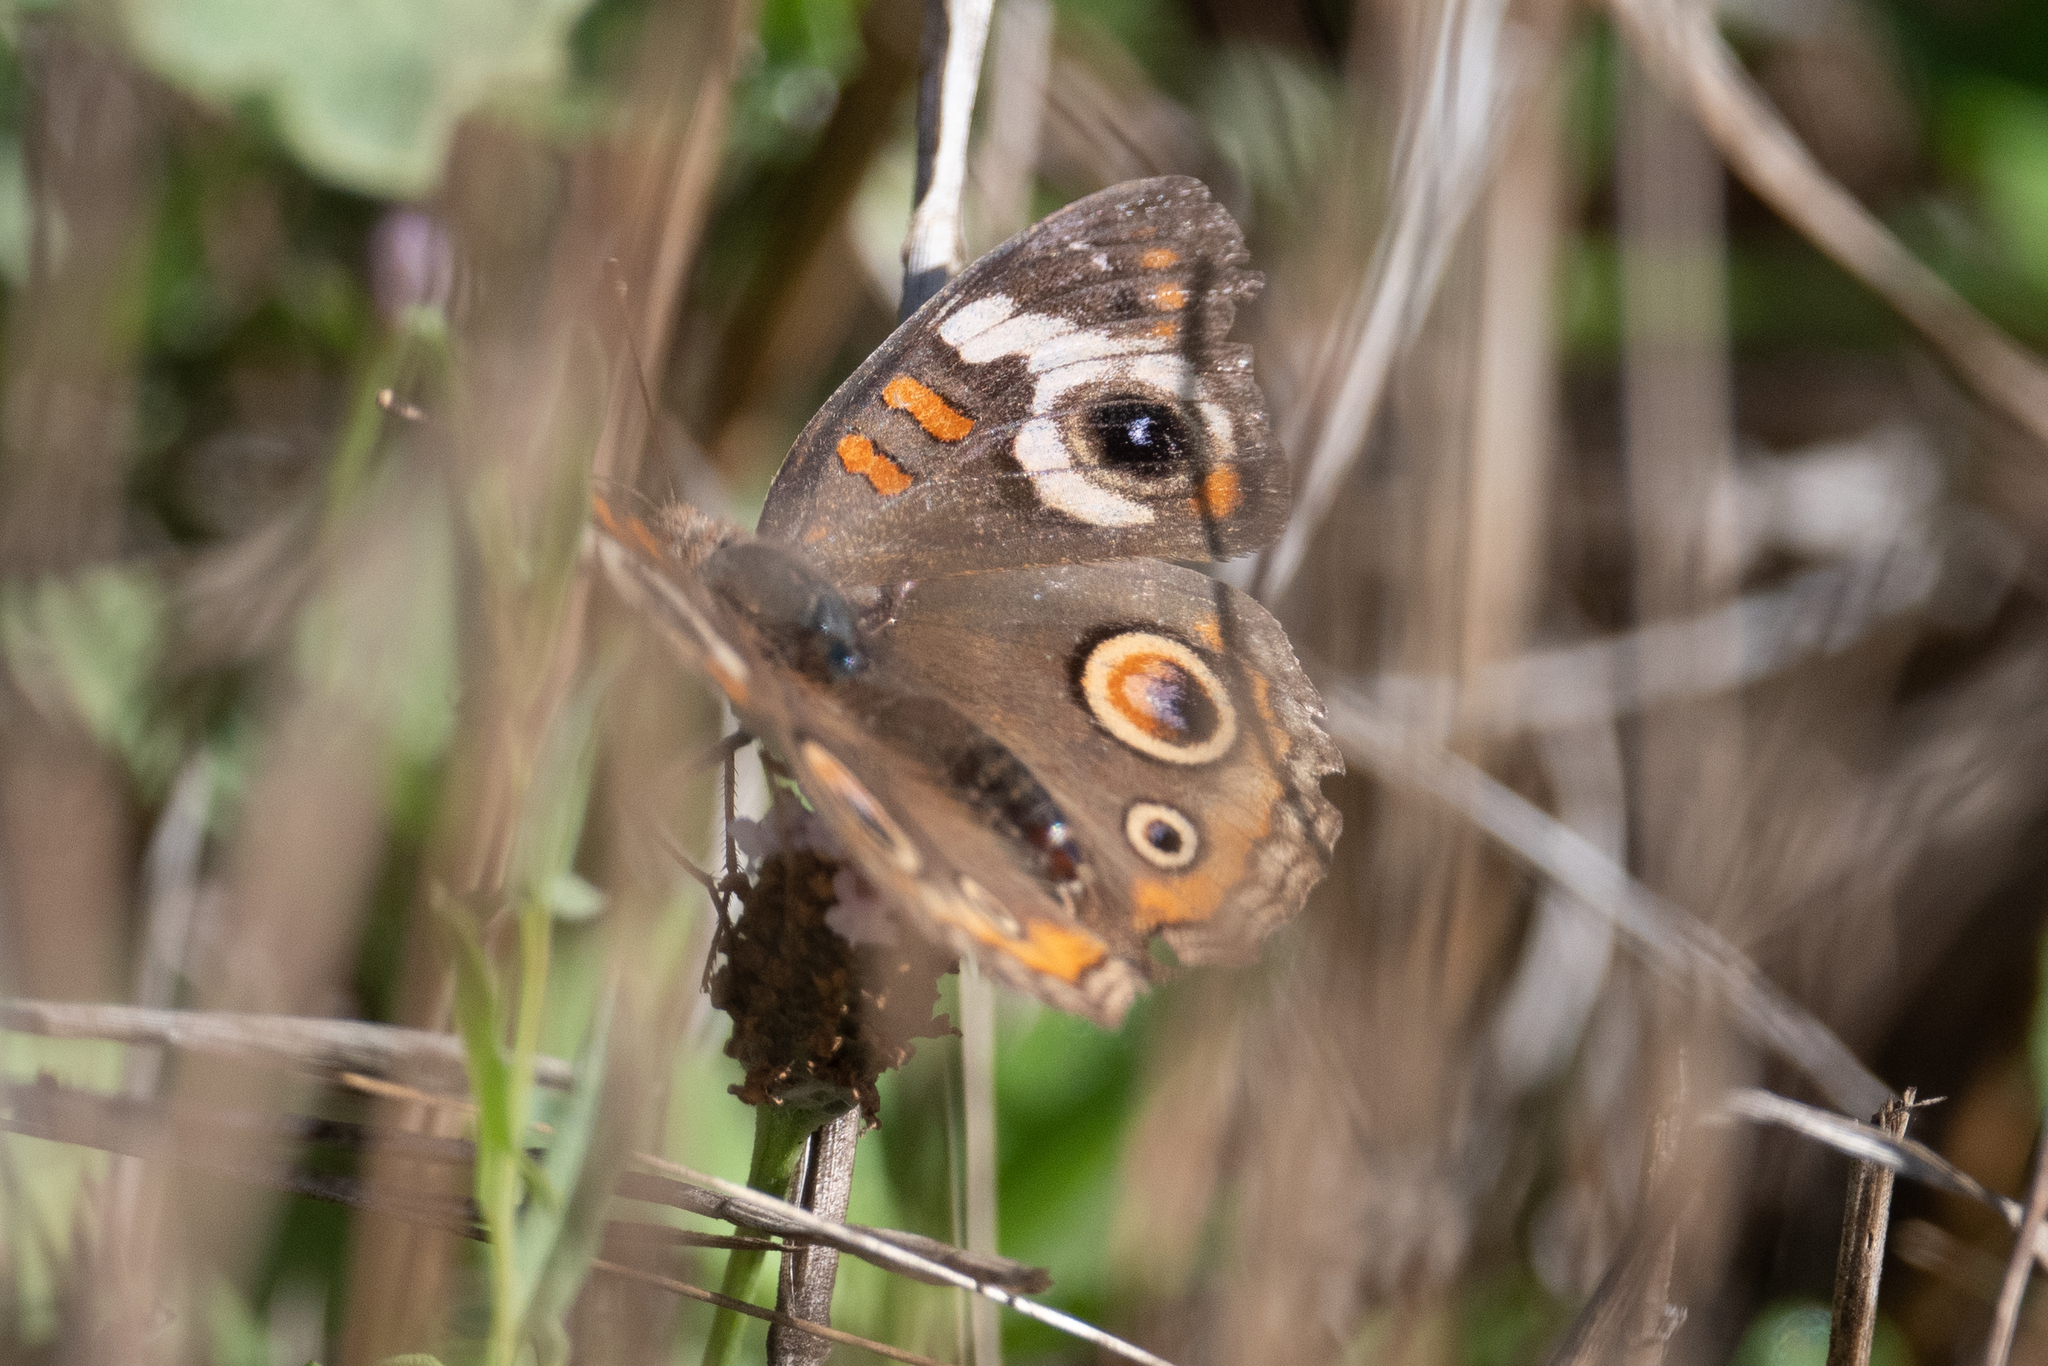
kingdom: Animalia
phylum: Arthropoda
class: Insecta
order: Lepidoptera
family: Nymphalidae
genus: Junonia
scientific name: Junonia grisea
